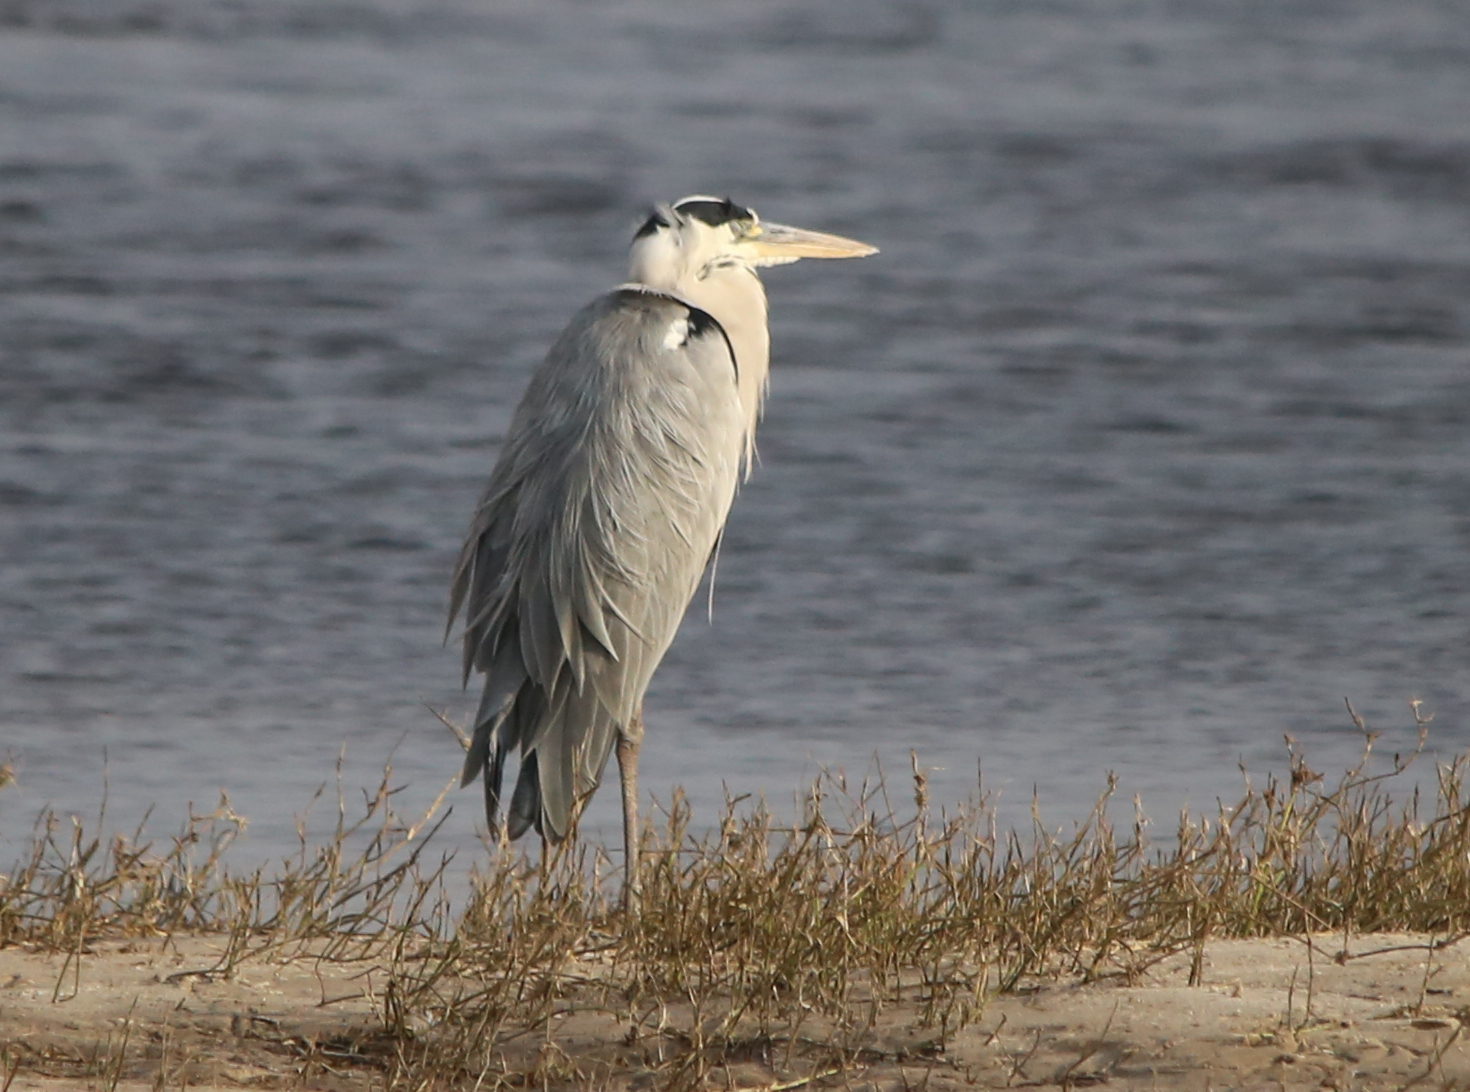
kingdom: Animalia
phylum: Chordata
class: Aves
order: Pelecaniformes
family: Ardeidae
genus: Ardea
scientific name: Ardea cinerea
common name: Grey heron
